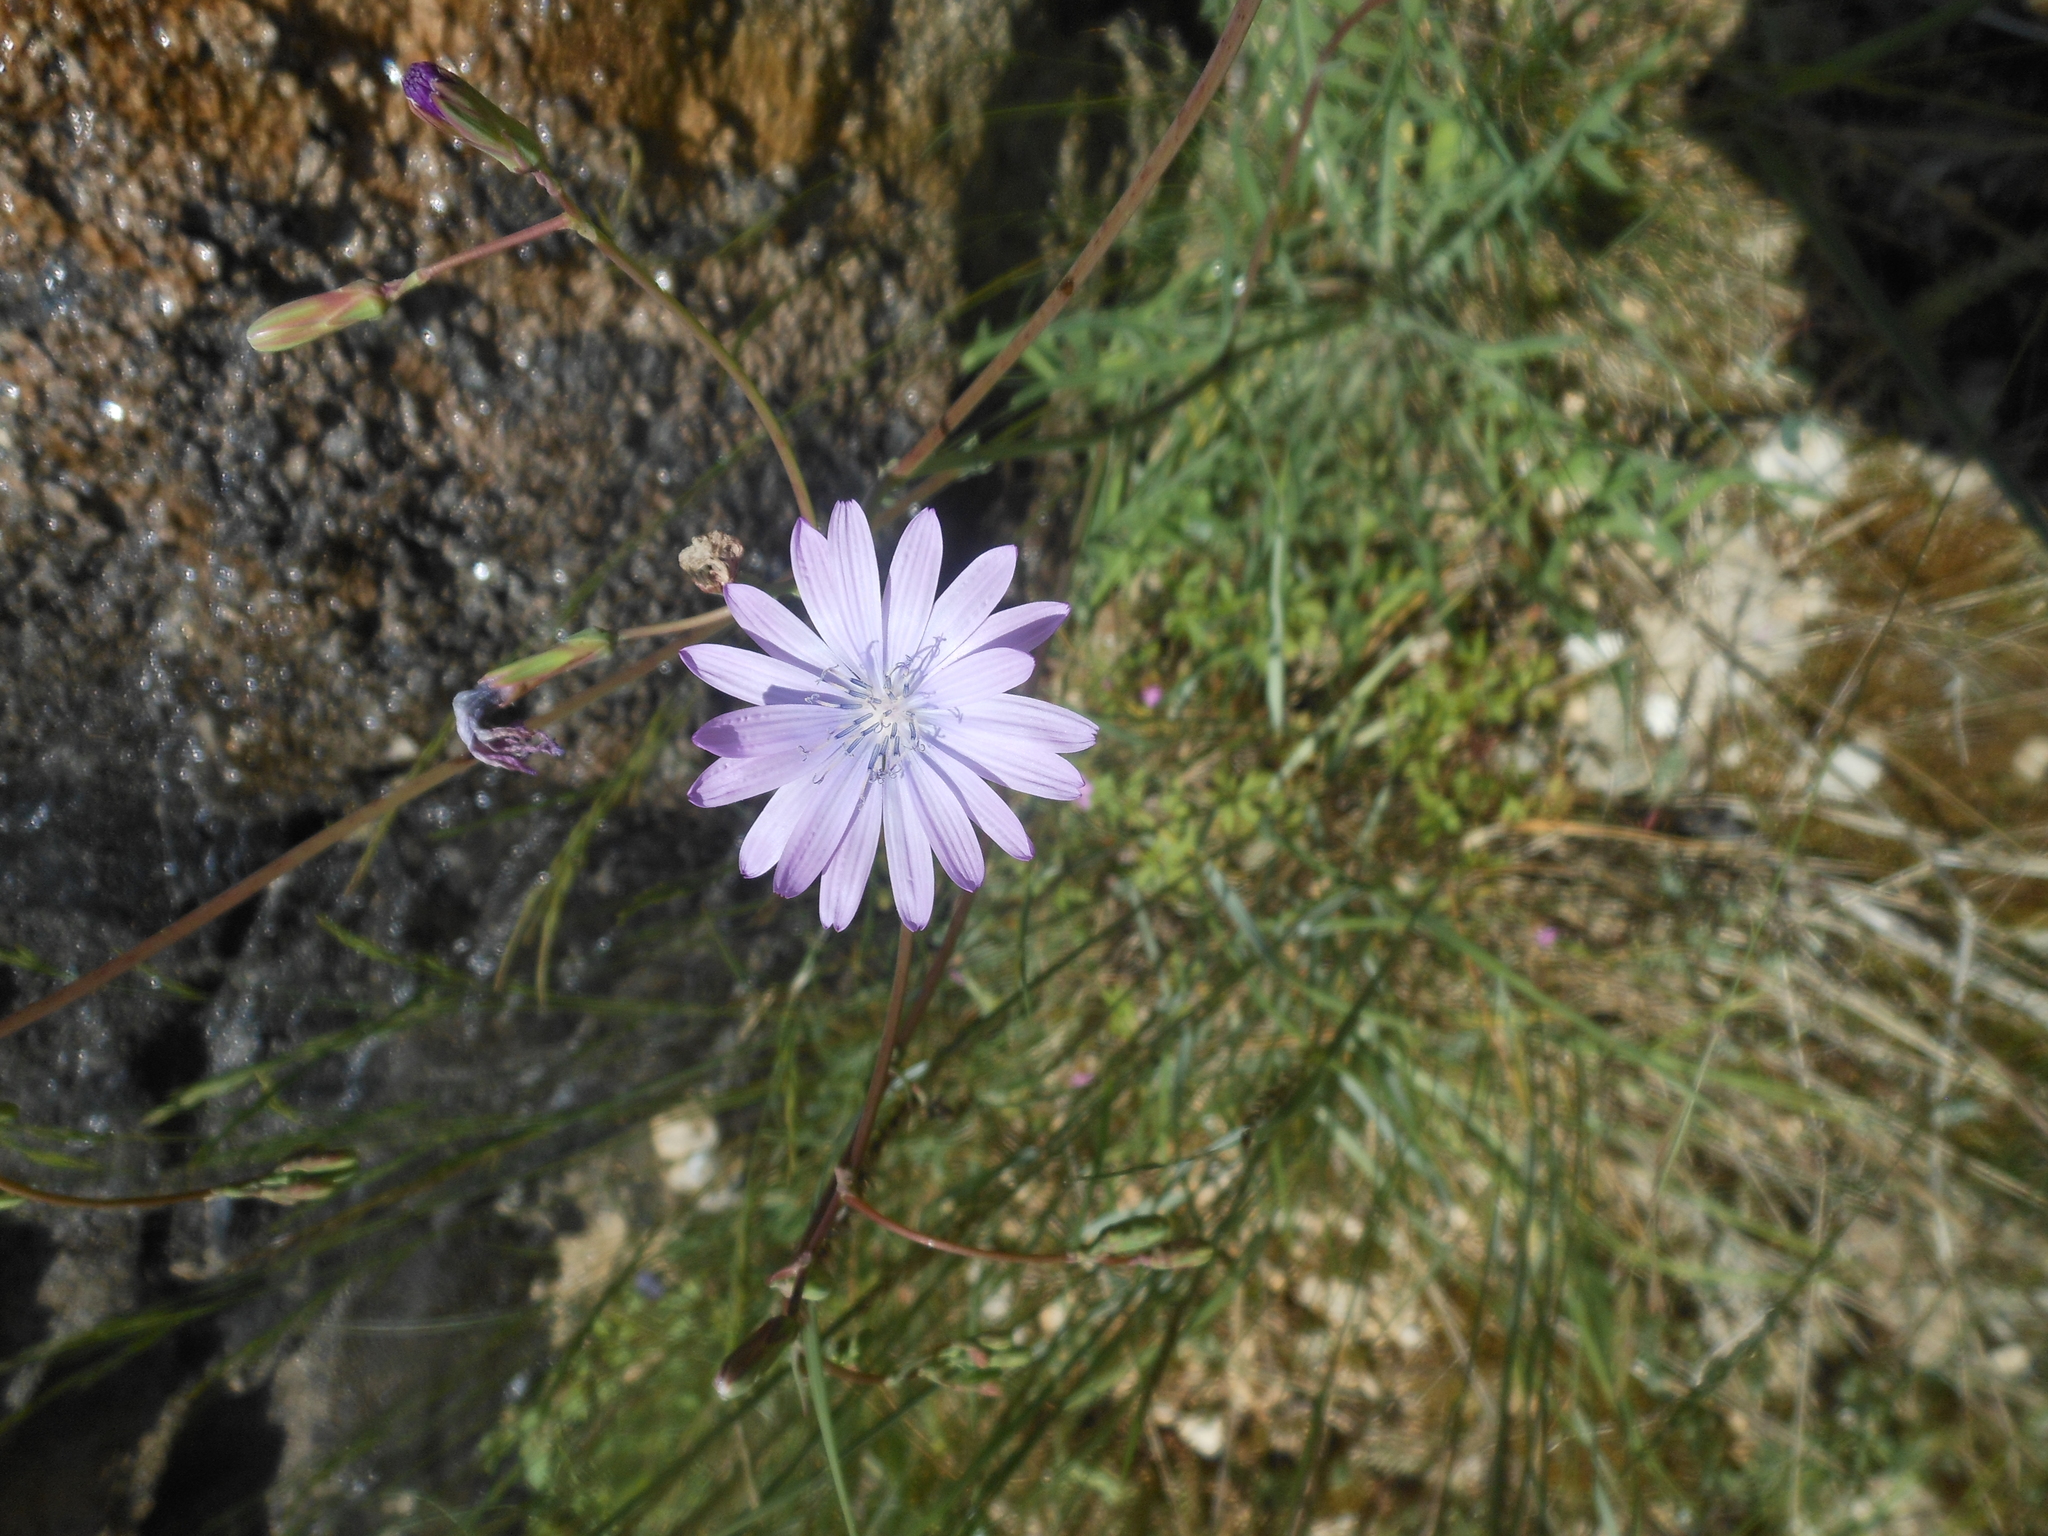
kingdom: Plantae
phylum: Tracheophyta
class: Magnoliopsida
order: Asterales
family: Asteraceae
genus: Lactuca
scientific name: Lactuca perennis
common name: Mountain lettuce
